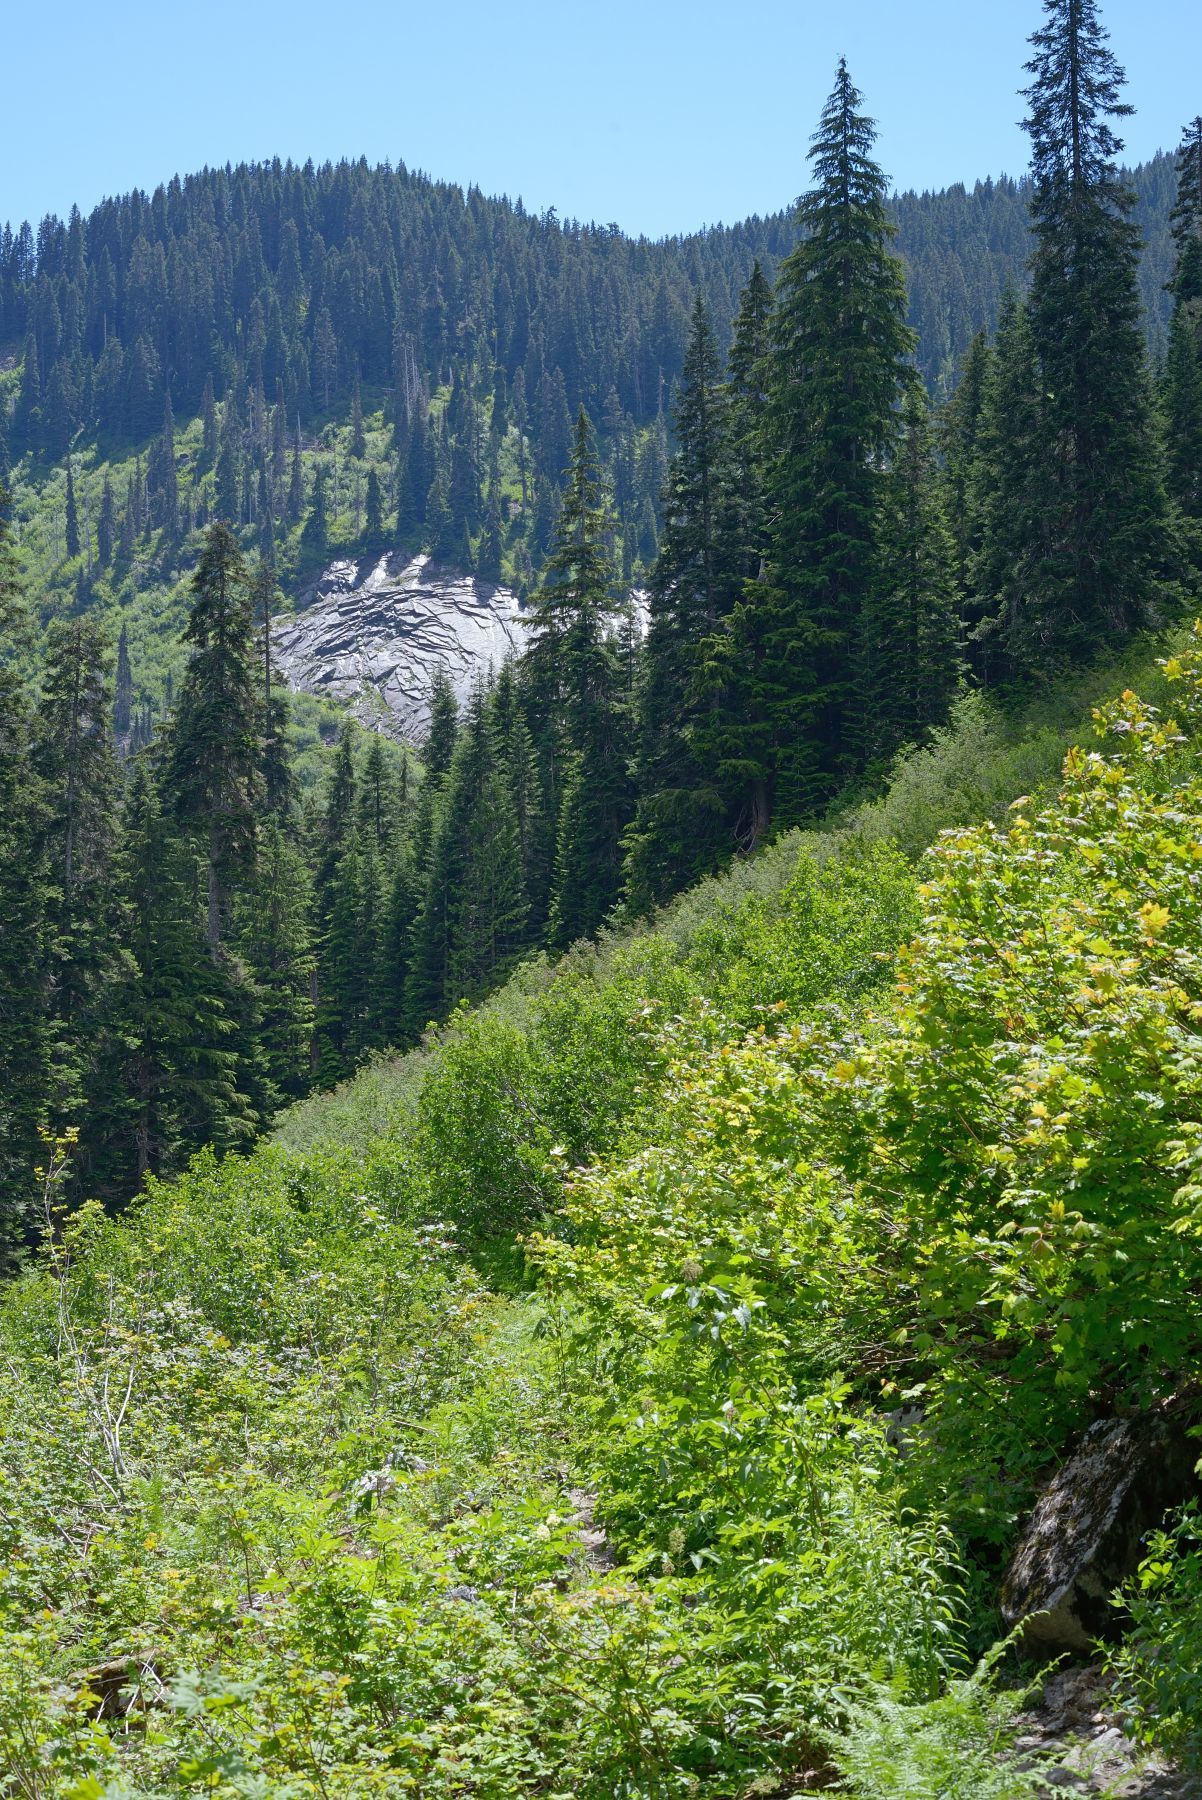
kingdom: Plantae
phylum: Tracheophyta
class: Polypodiopsida
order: Polypodiales
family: Thelypteridaceae
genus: Oreopteris
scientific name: Oreopteris quelpartensis
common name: Mountain fern
